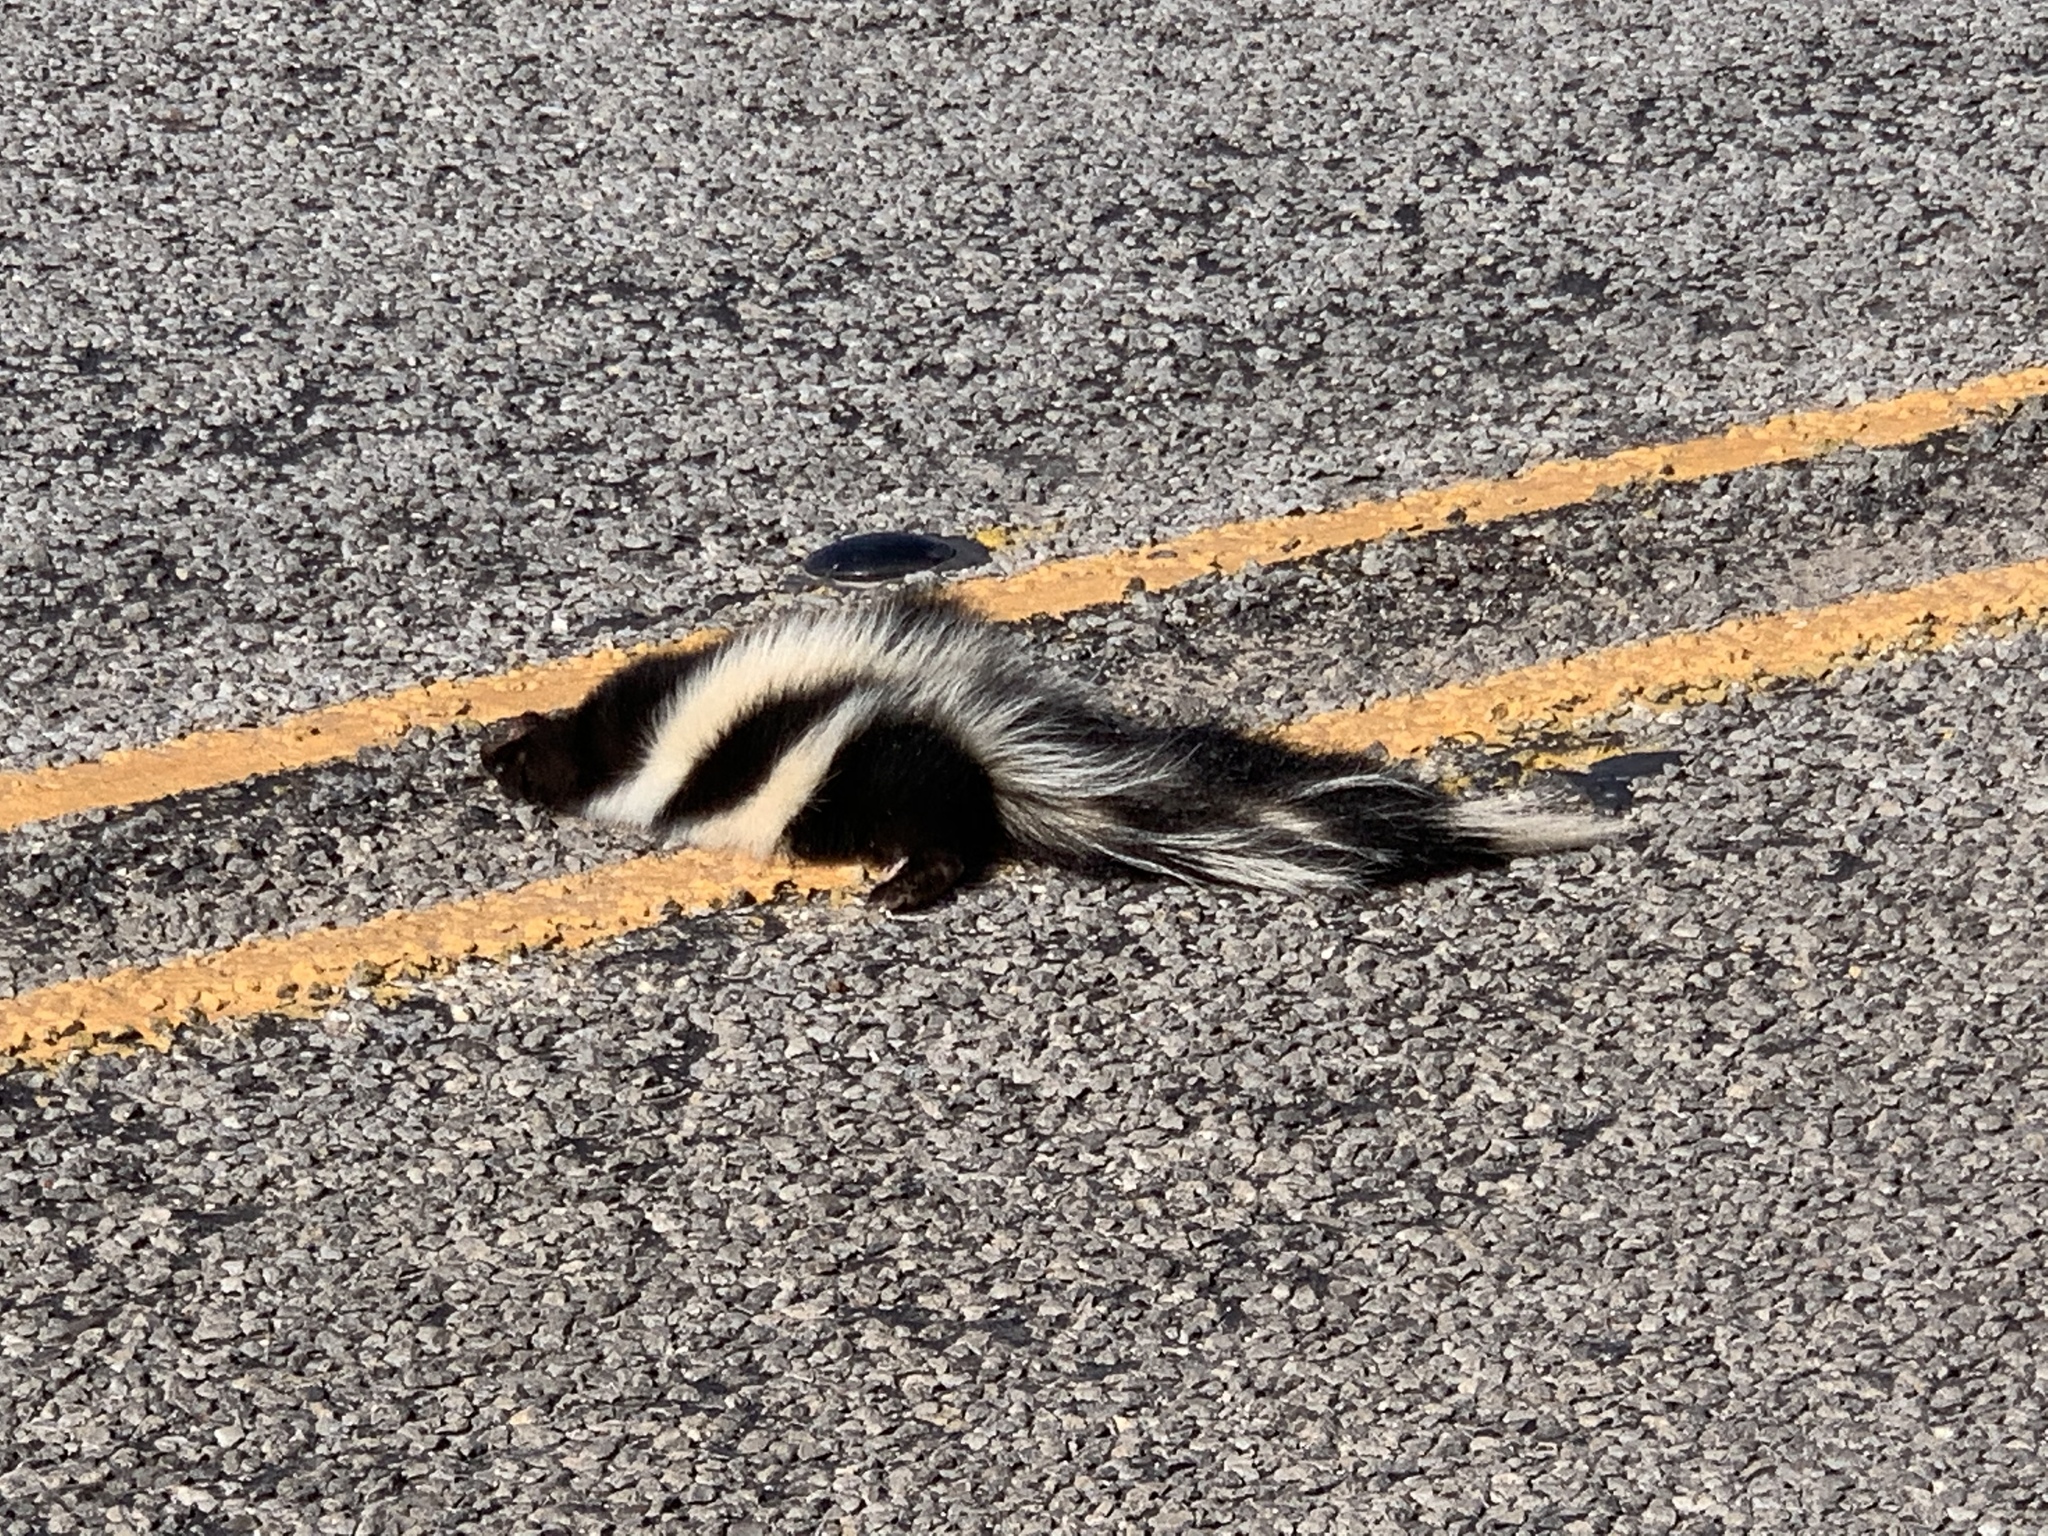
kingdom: Animalia
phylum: Chordata
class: Mammalia
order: Carnivora
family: Mephitidae
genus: Mephitis
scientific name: Mephitis mephitis
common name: Striped skunk
